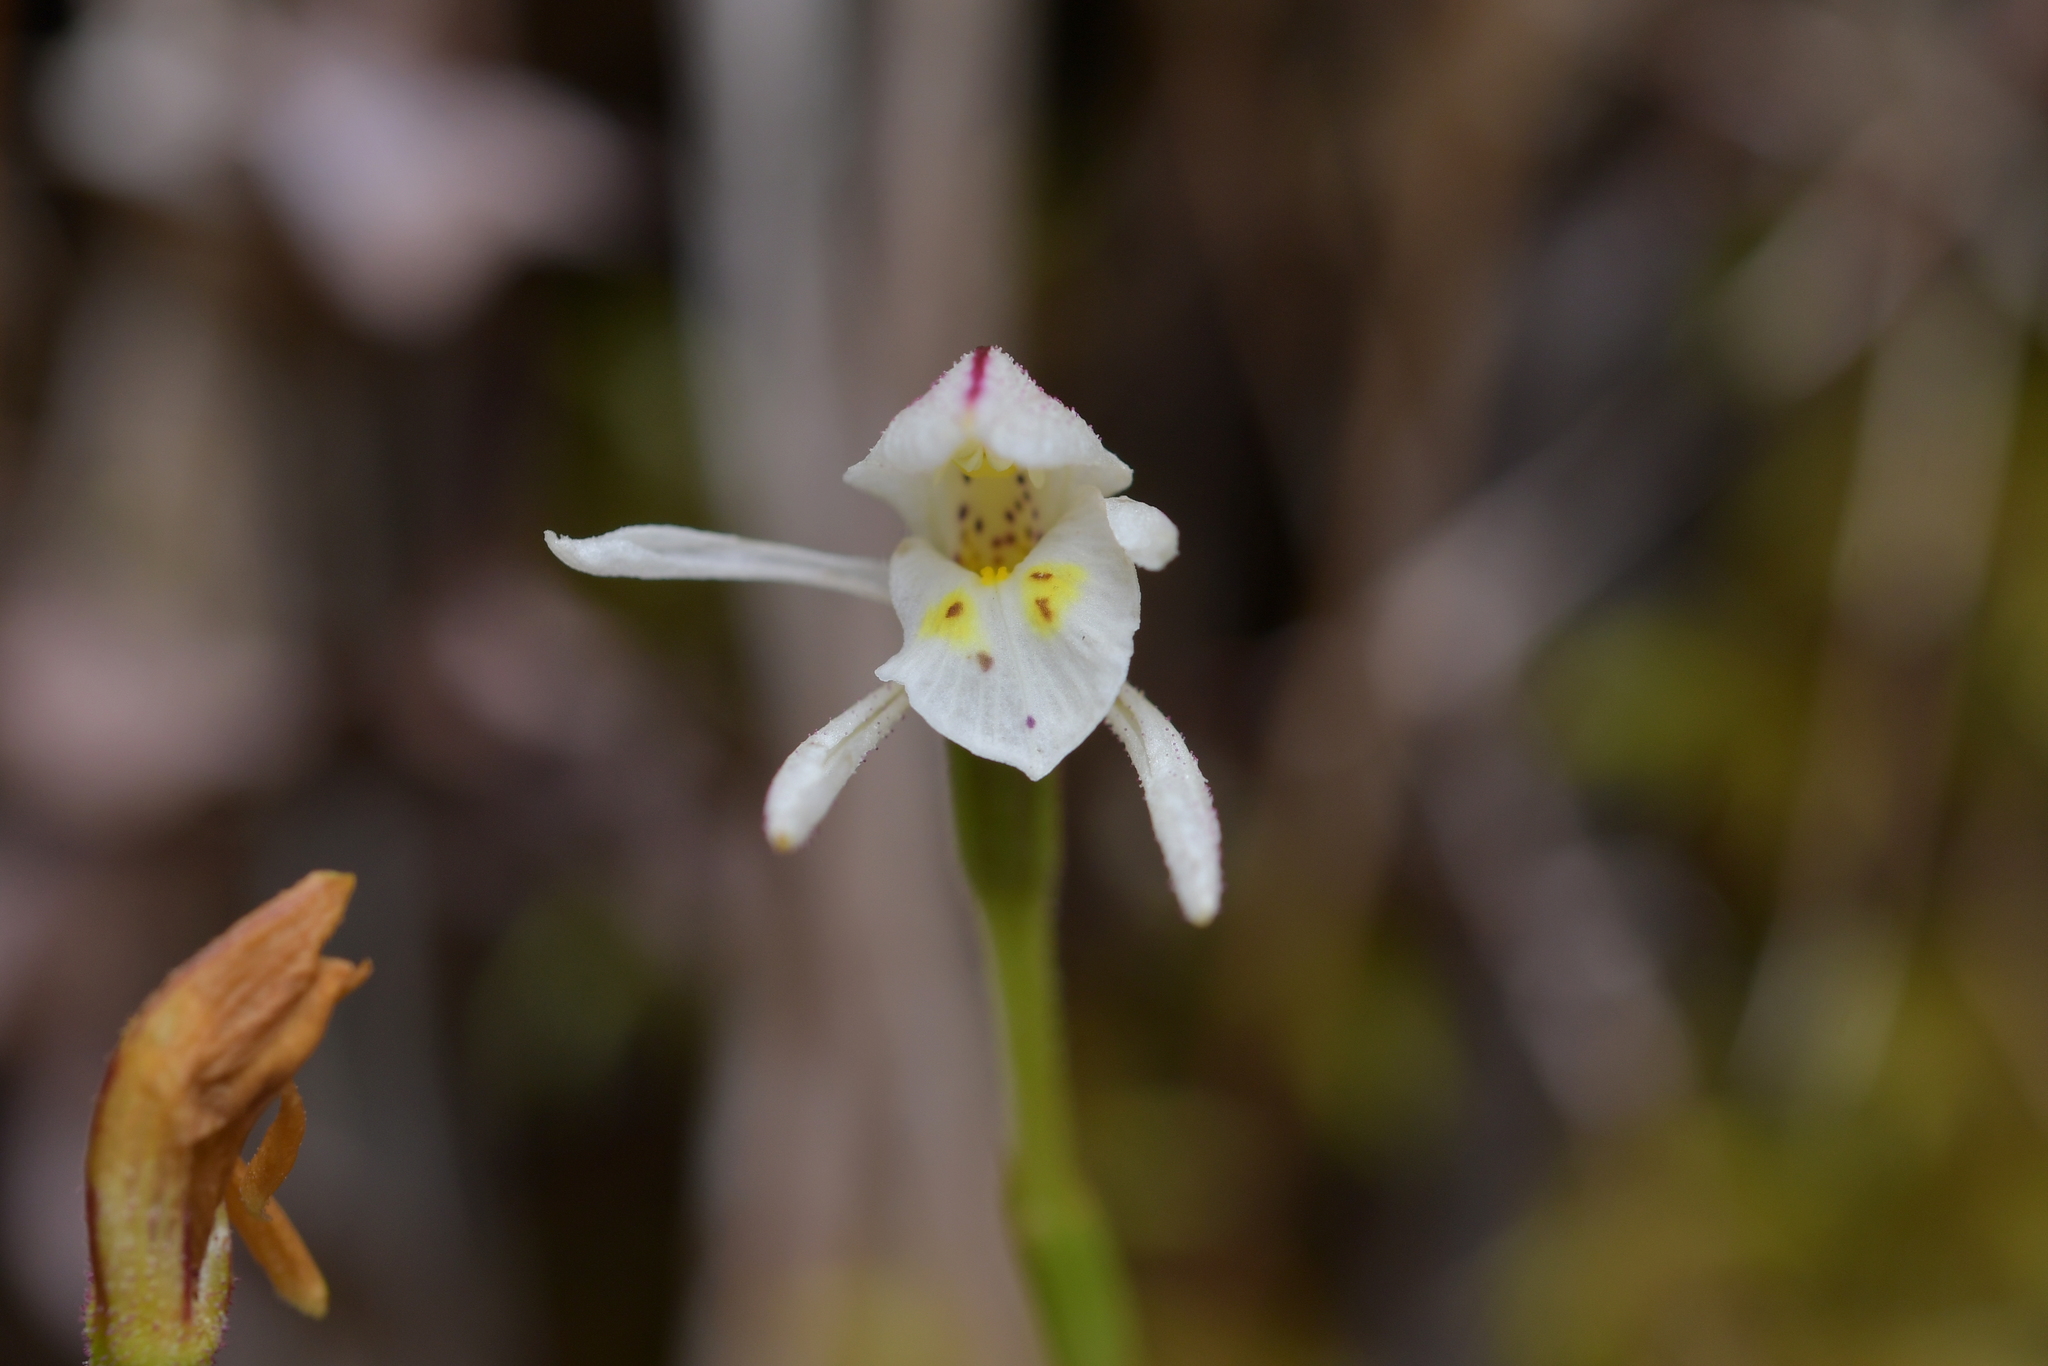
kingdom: Plantae
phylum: Tracheophyta
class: Liliopsida
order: Asparagales
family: Orchidaceae
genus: Aporostylis
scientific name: Aporostylis bifolia
